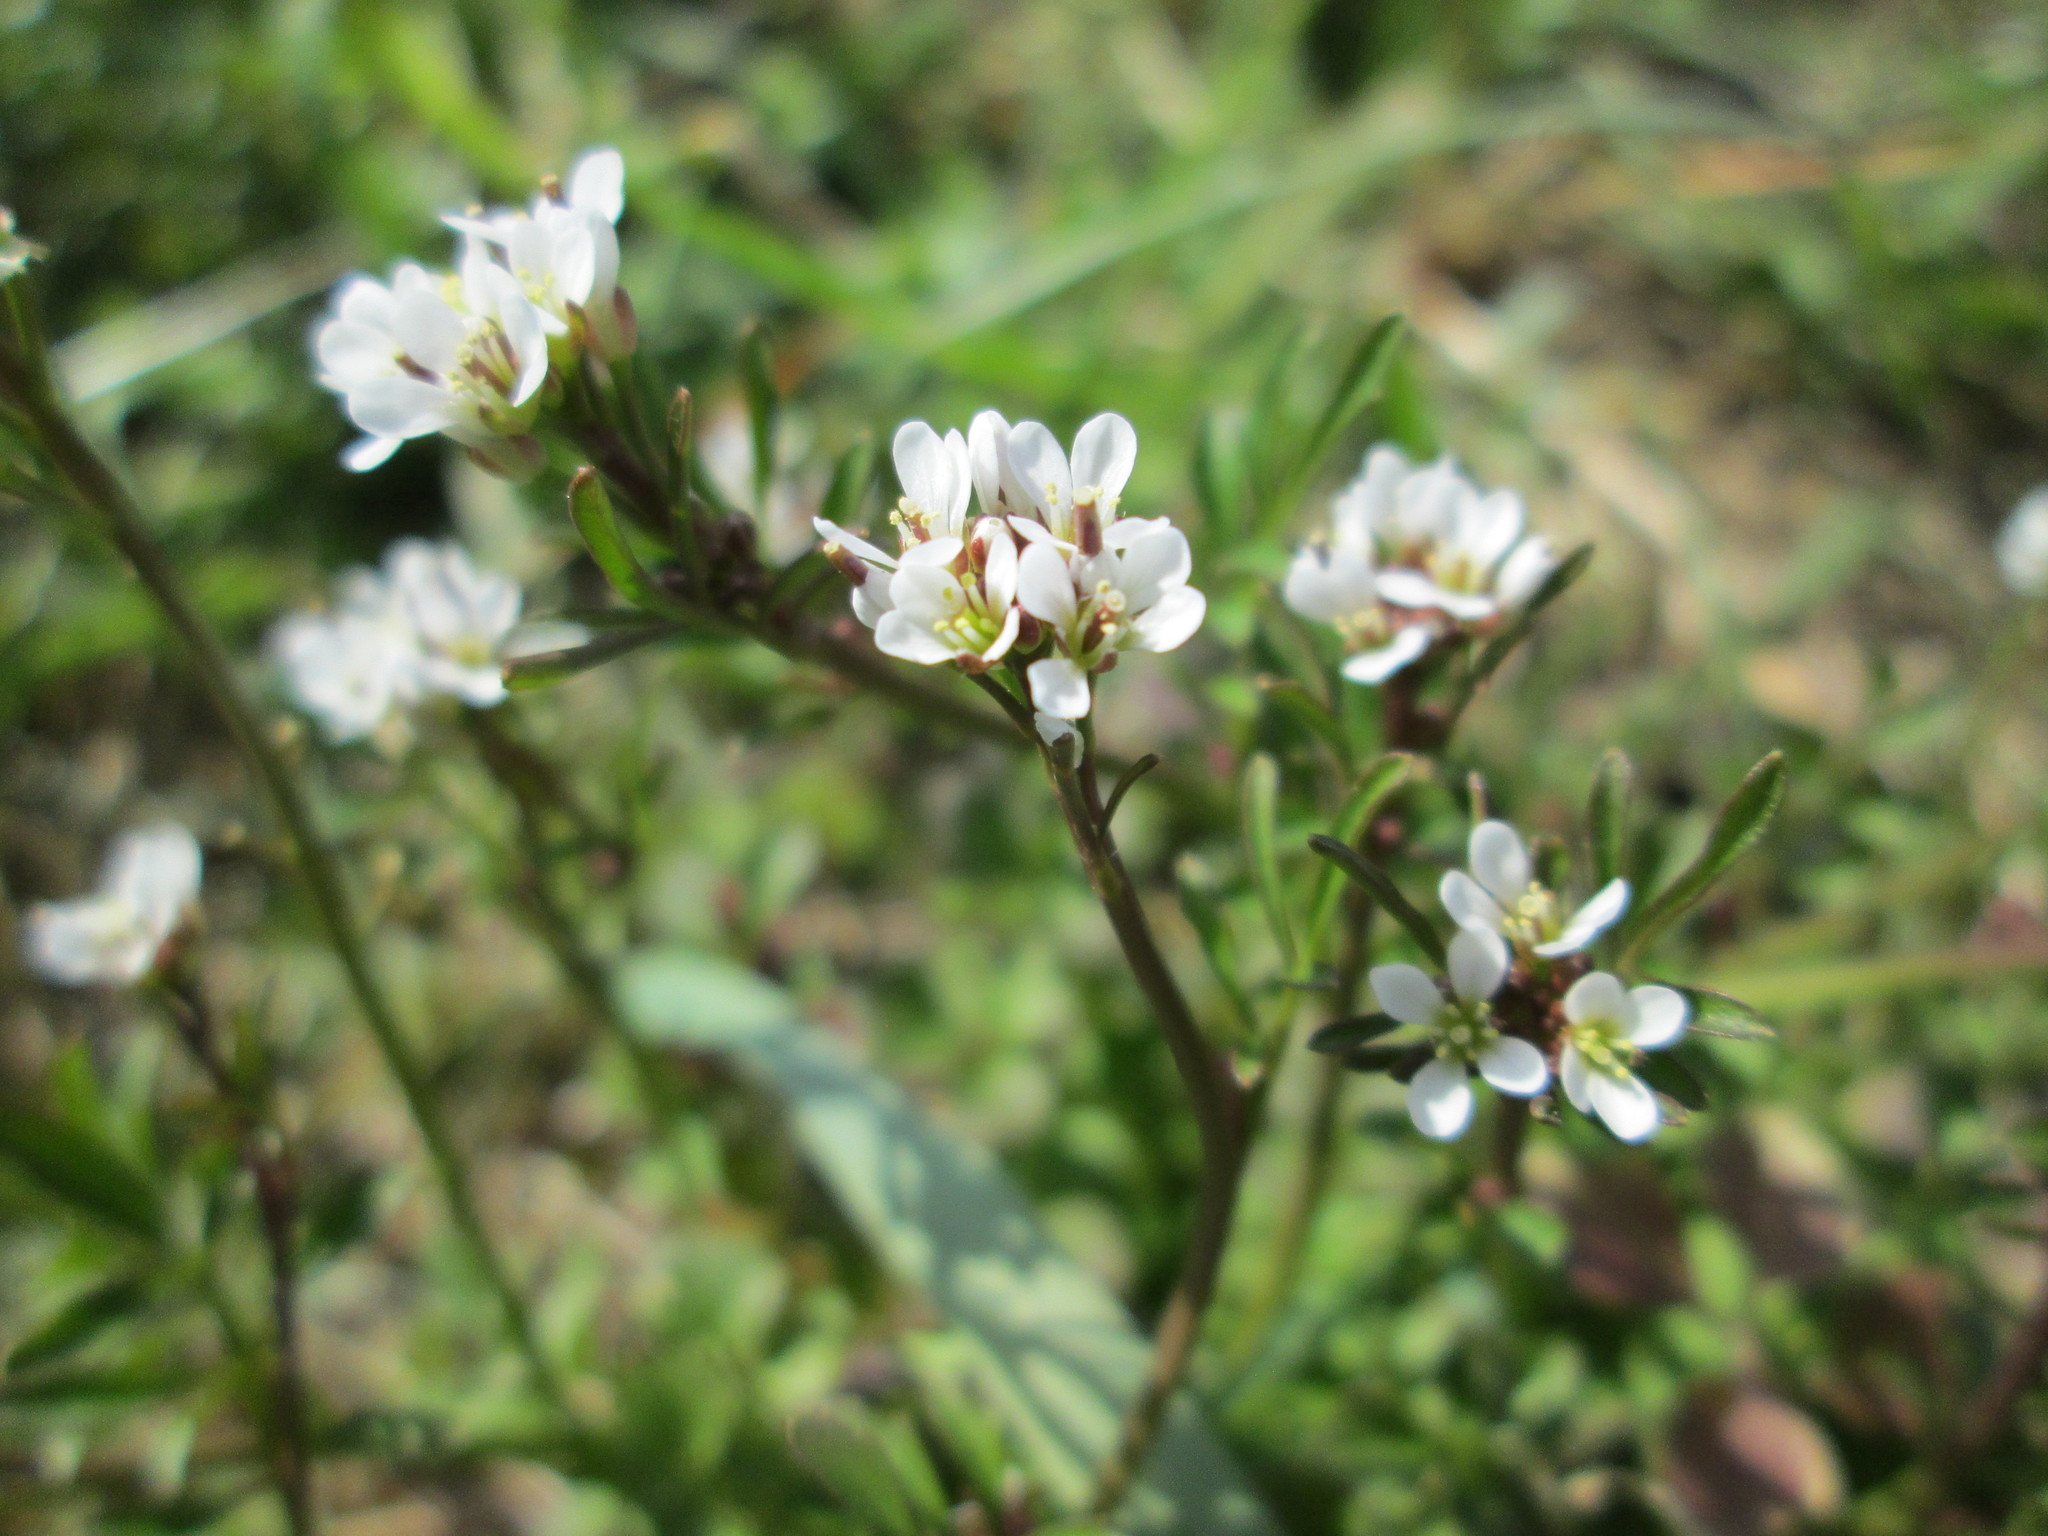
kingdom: Plantae
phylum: Tracheophyta
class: Magnoliopsida
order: Brassicales
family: Brassicaceae
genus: Cardamine
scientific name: Cardamine hirsuta
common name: Hairy bittercress
